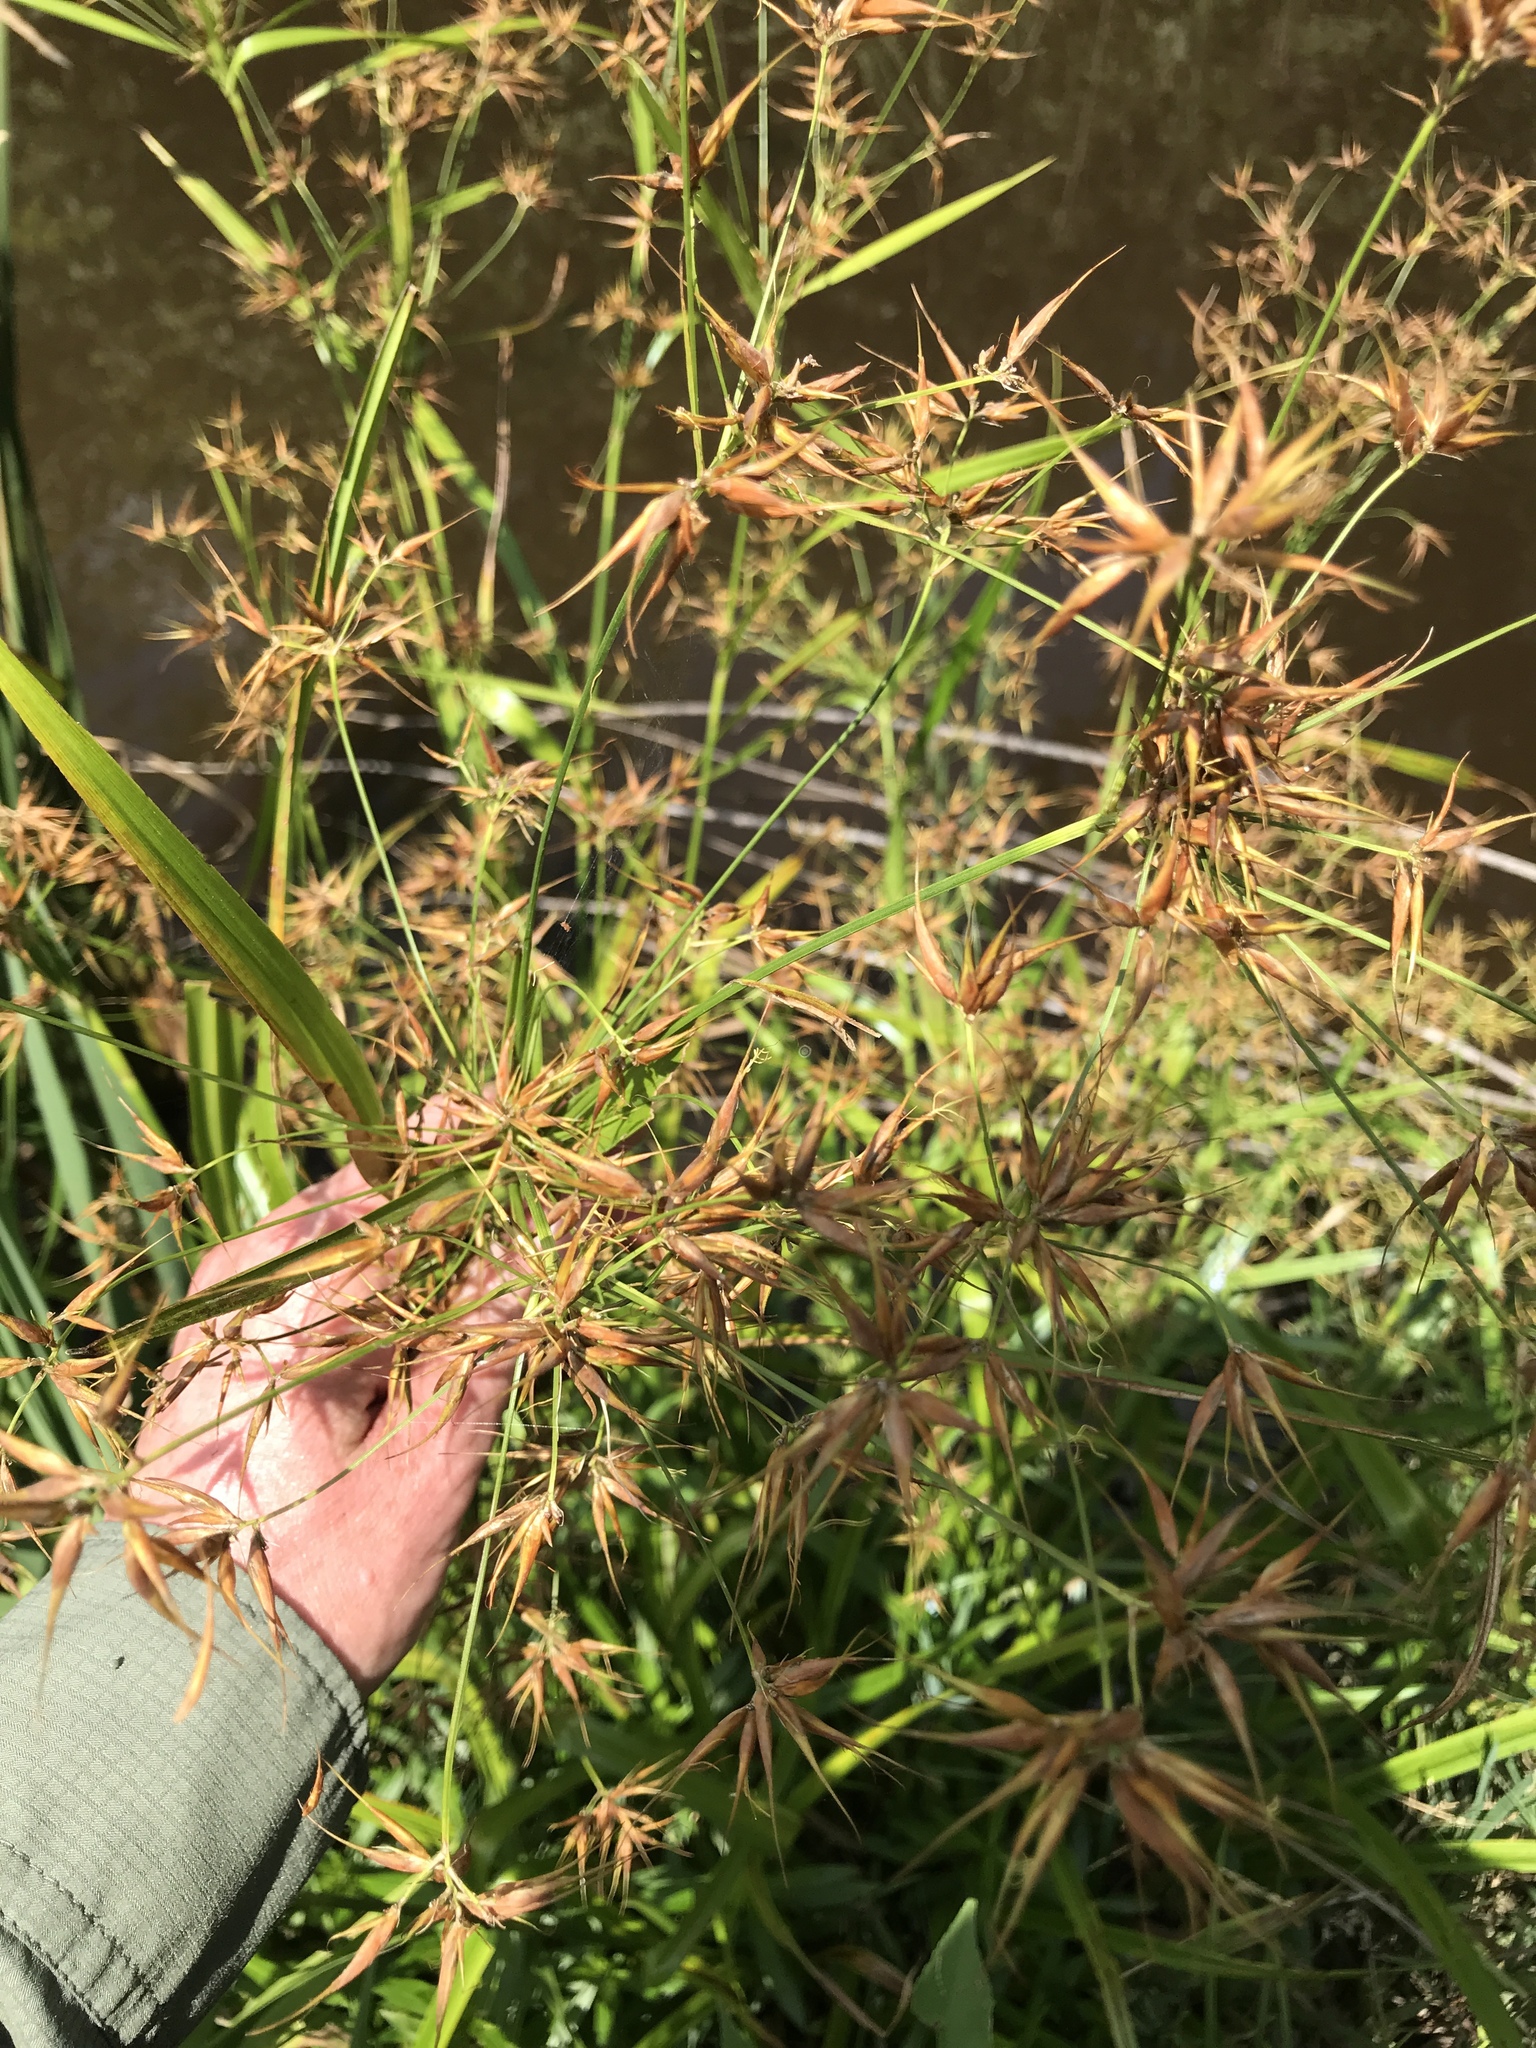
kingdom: Plantae
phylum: Tracheophyta
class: Liliopsida
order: Poales
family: Cyperaceae
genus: Rhynchospora
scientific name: Rhynchospora corniculata
